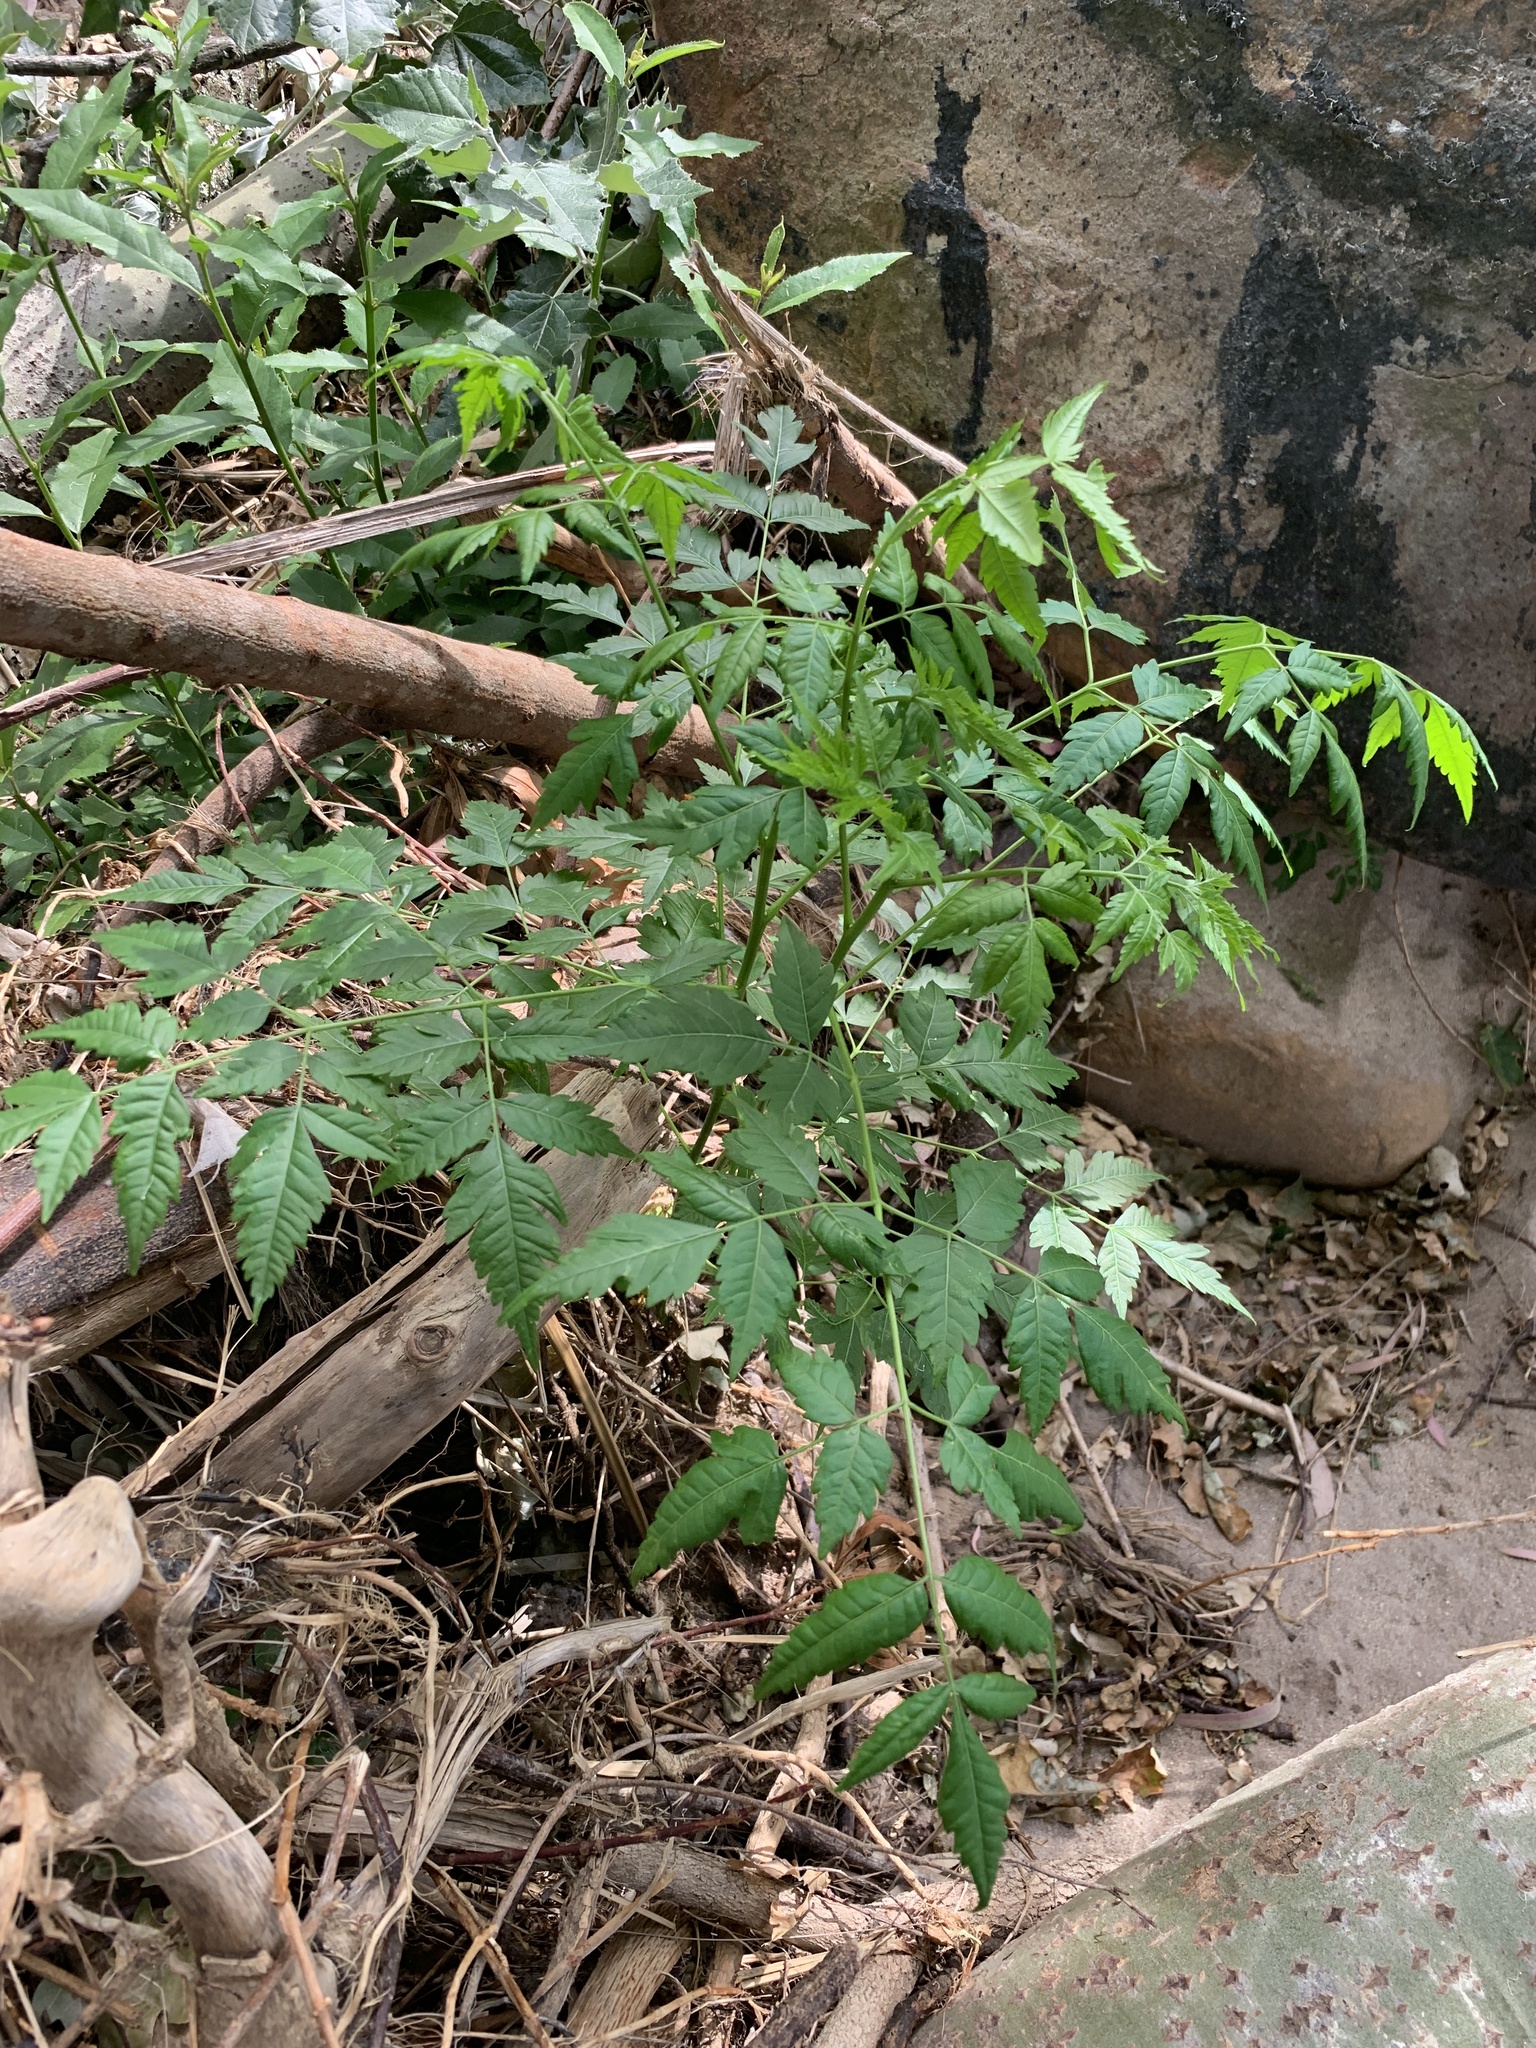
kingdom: Plantae
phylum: Tracheophyta
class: Magnoliopsida
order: Sapindales
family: Meliaceae
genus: Melia
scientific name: Melia azedarach
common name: Chinaberrytree
